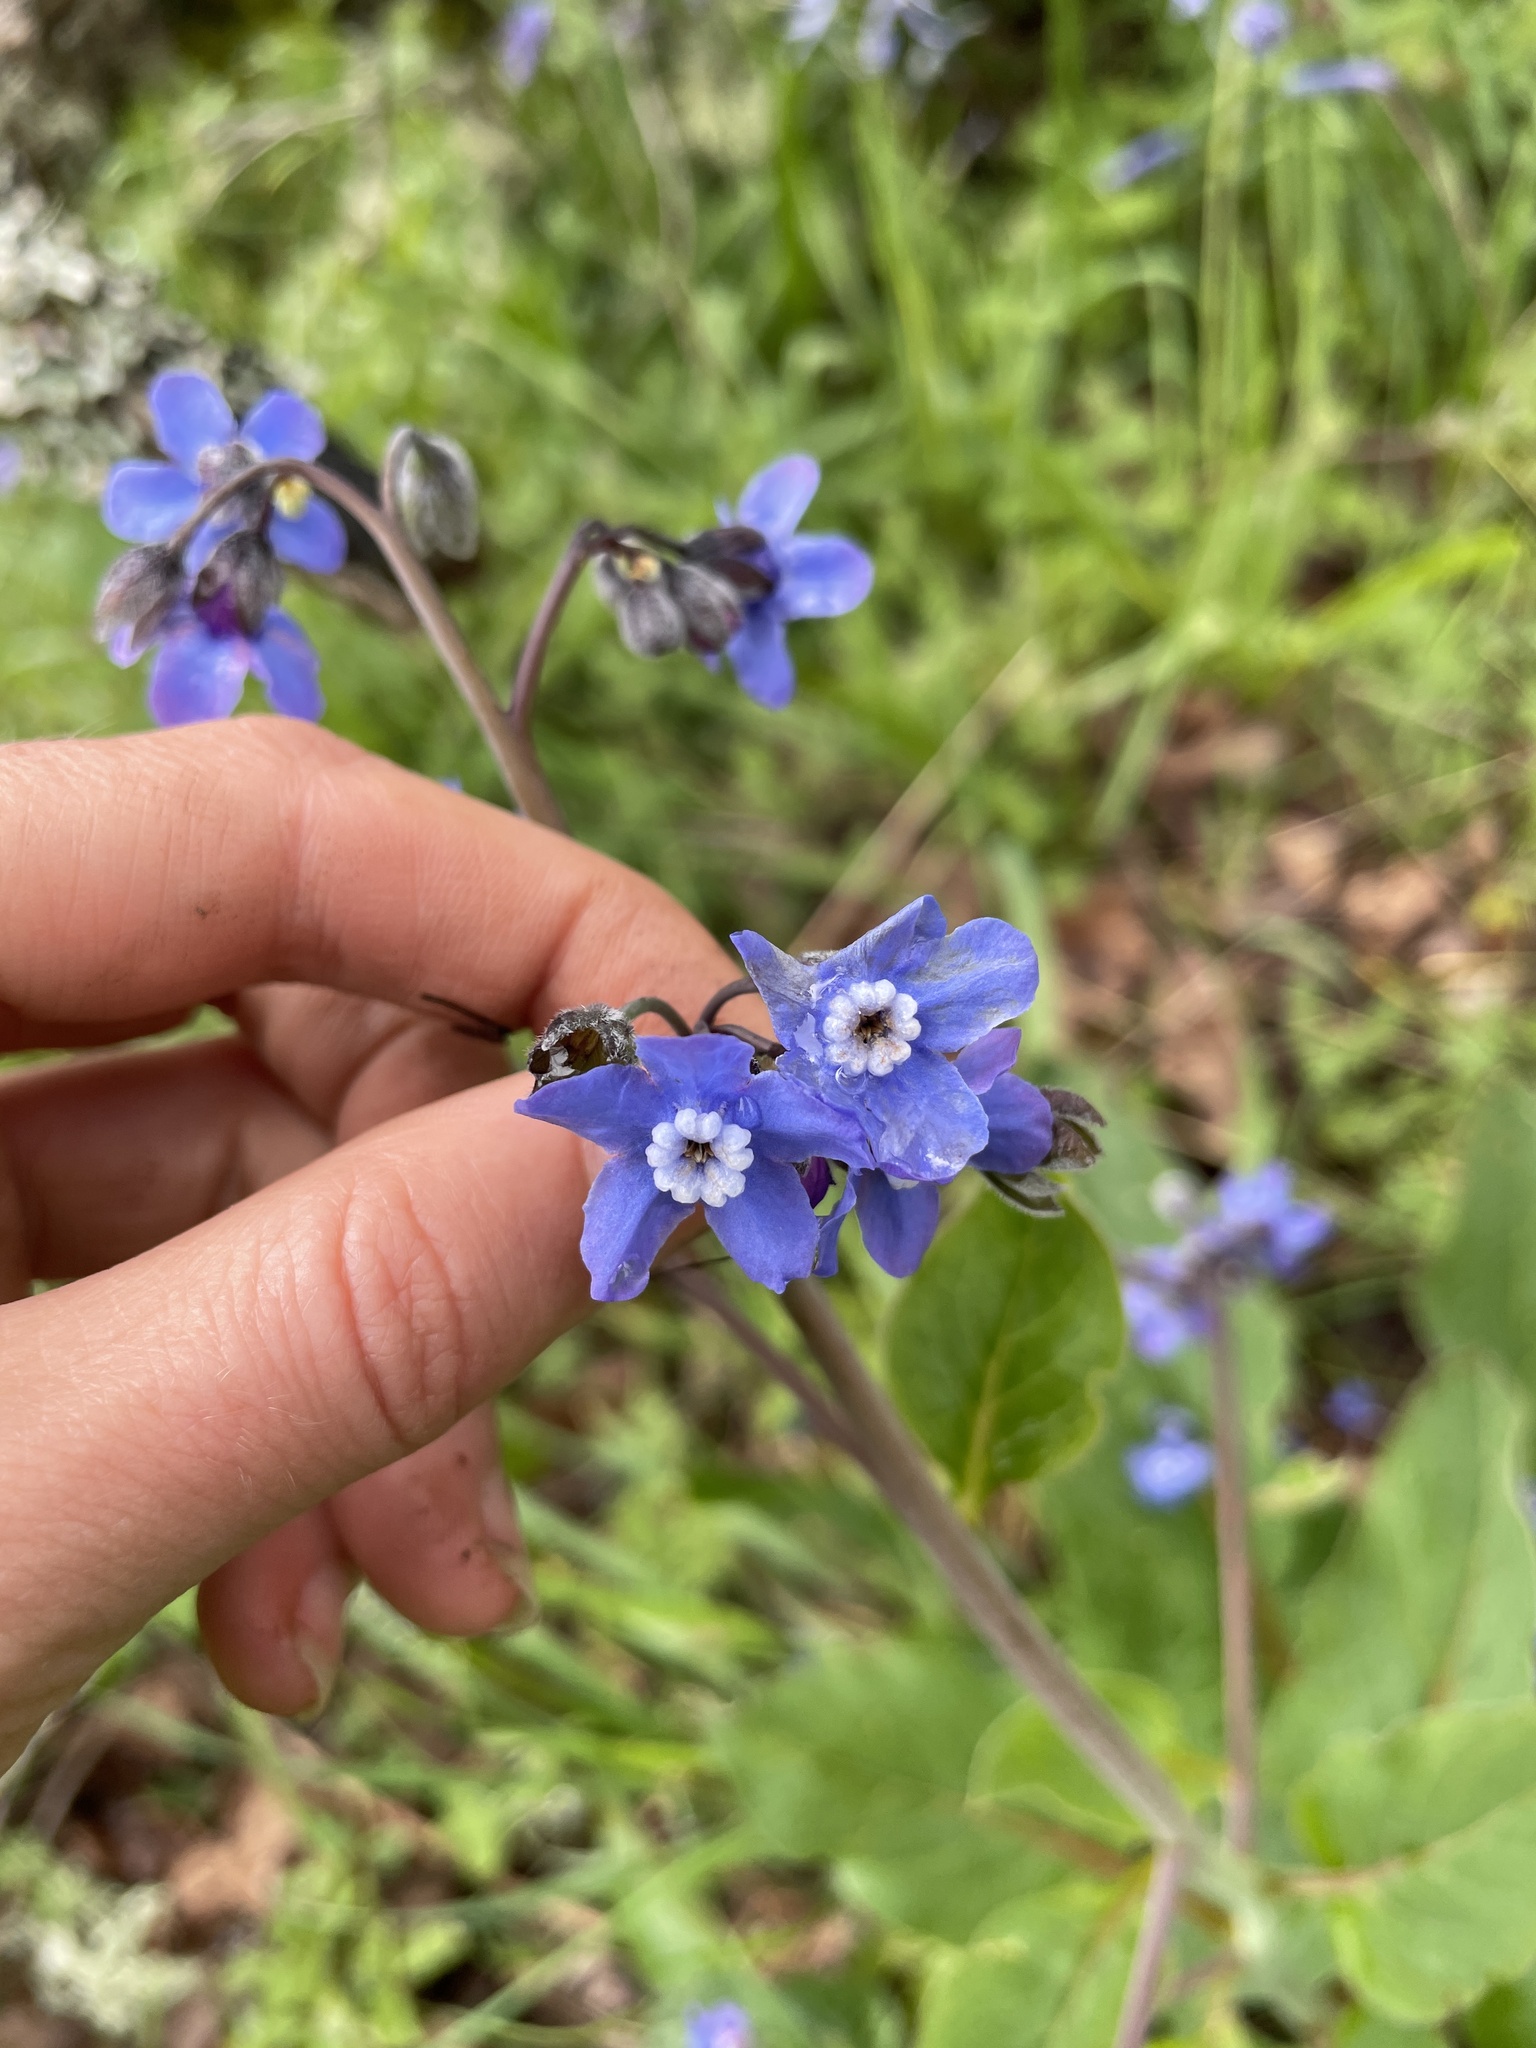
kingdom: Plantae
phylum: Tracheophyta
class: Magnoliopsida
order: Boraginales
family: Boraginaceae
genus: Adelinia
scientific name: Adelinia grande
